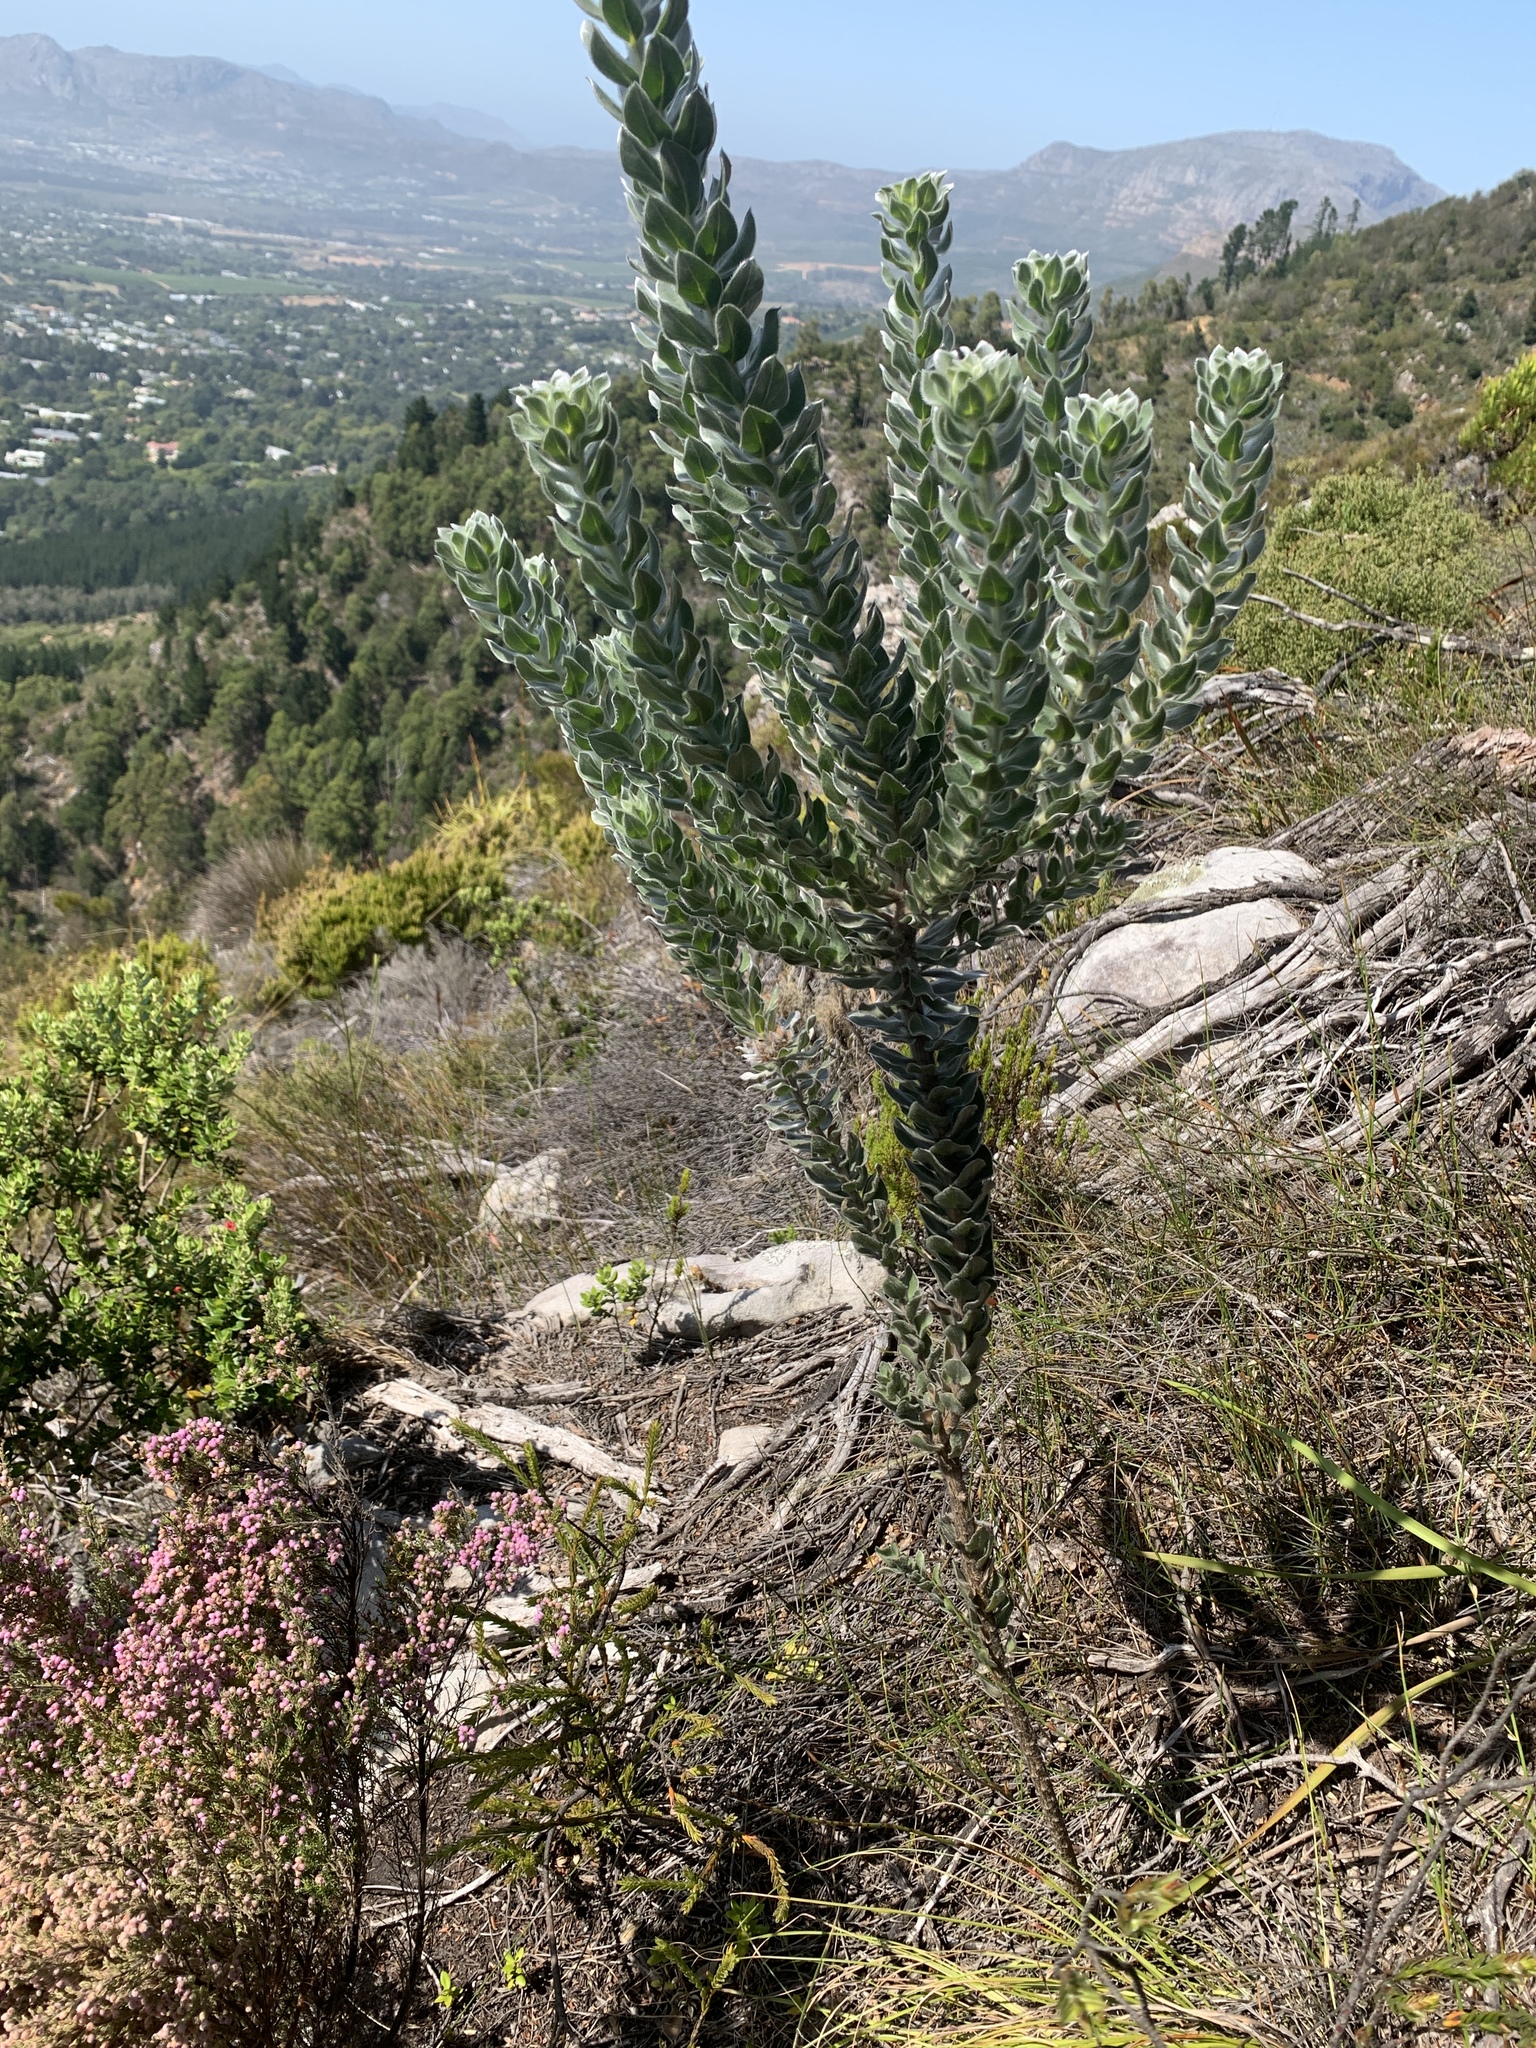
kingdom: Plantae
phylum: Tracheophyta
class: Magnoliopsida
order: Fabales
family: Fabaceae
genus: Xiphotheca
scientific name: Xiphotheca fruticosa
